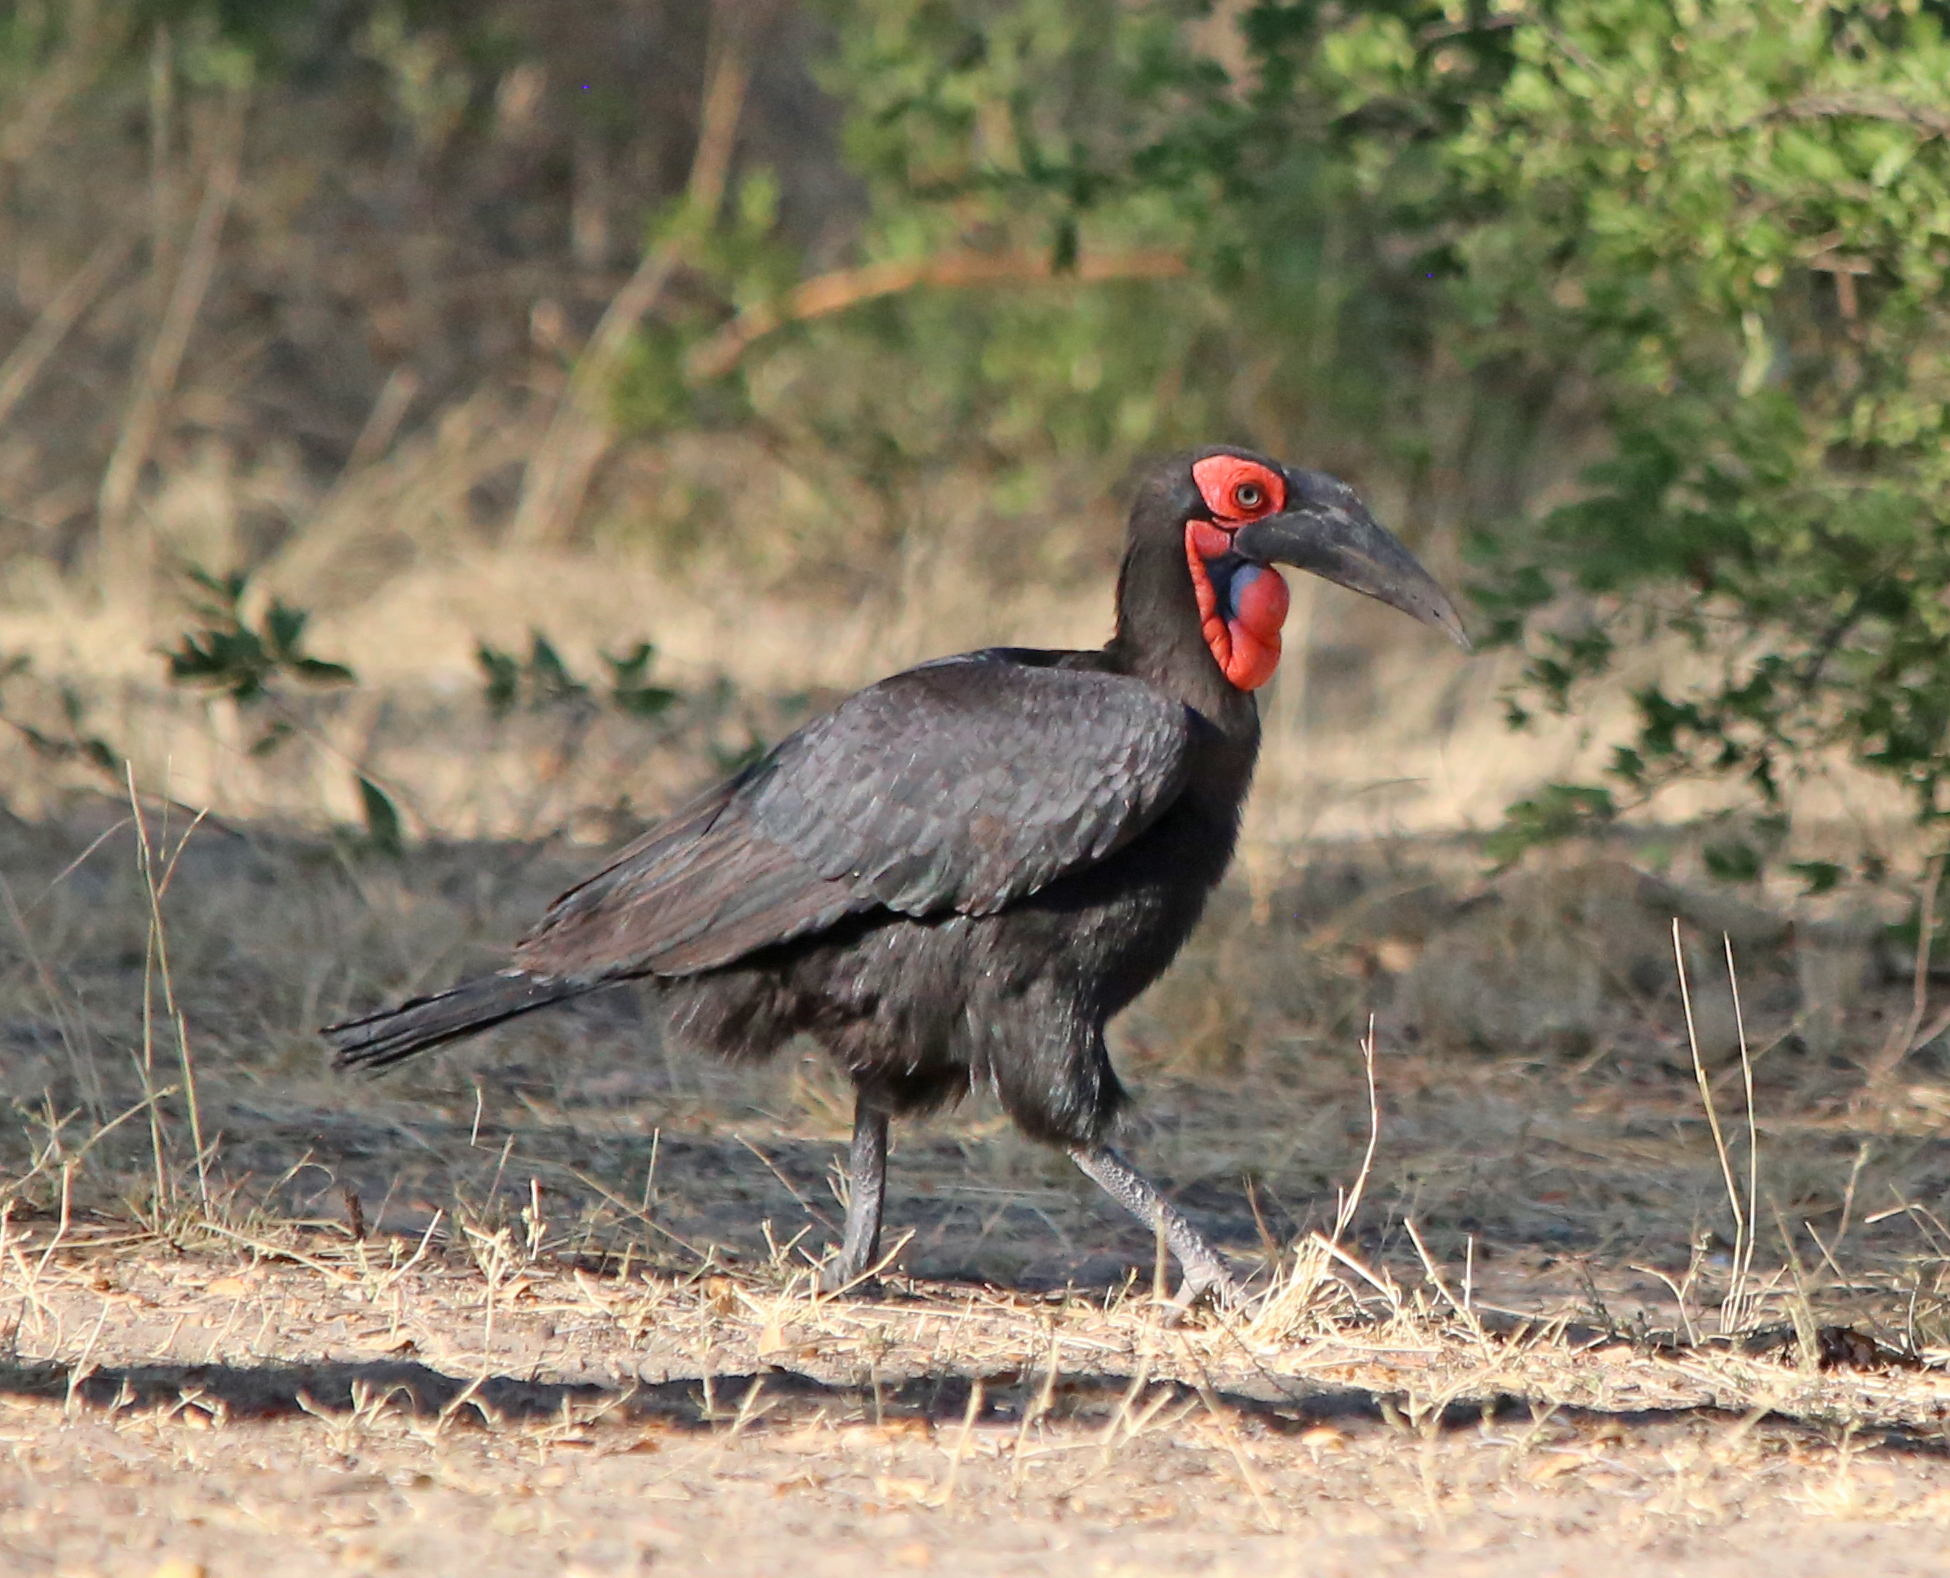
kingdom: Animalia
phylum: Chordata
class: Aves
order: Bucerotiformes
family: Bucorvidae
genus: Bucorvus
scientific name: Bucorvus leadbeateri
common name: Southern ground-hornbill
